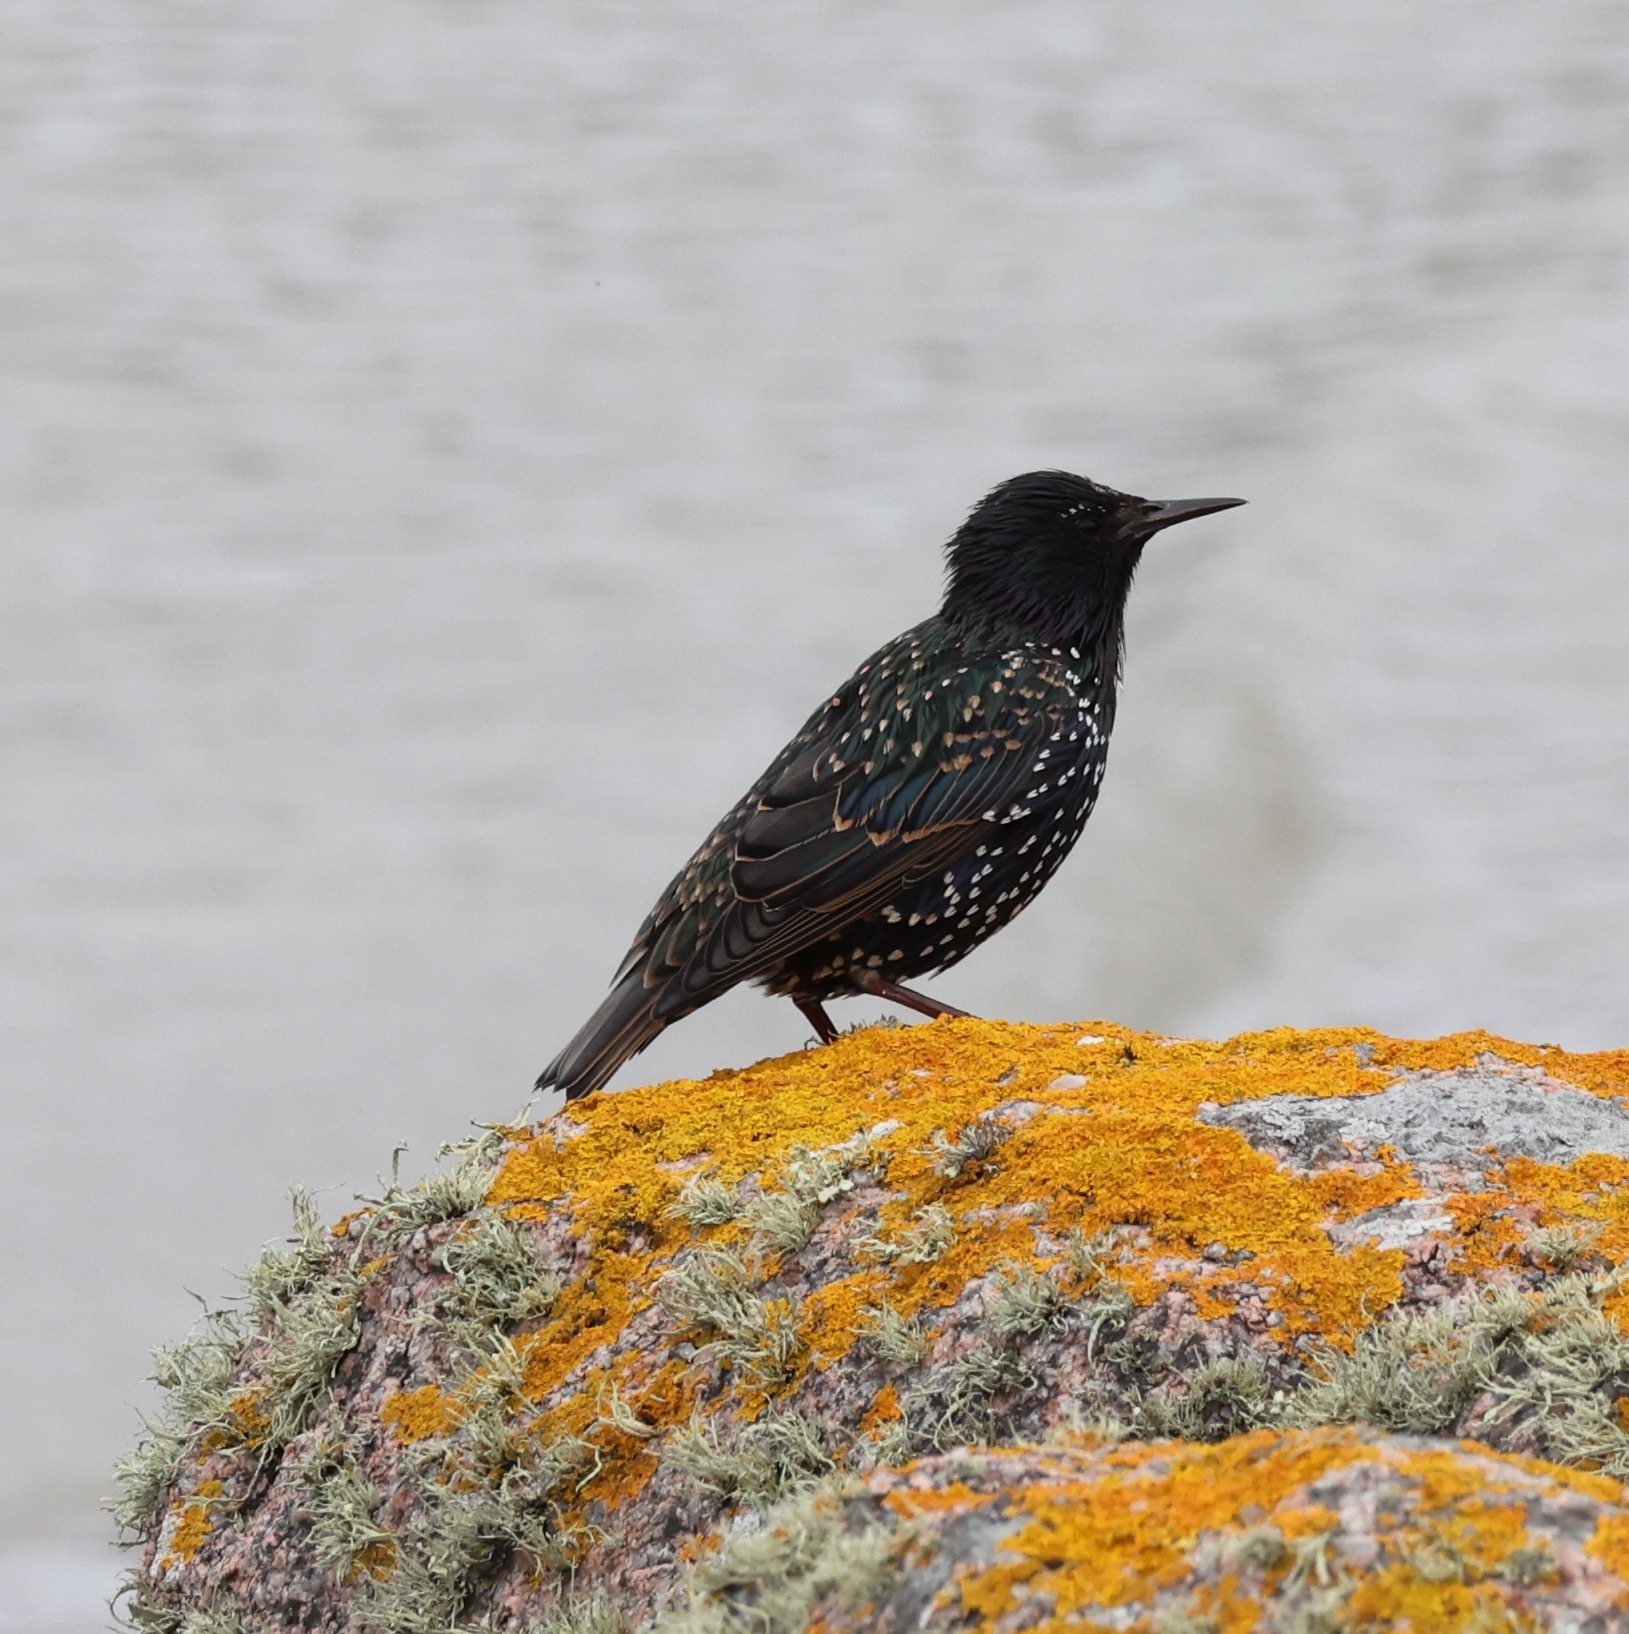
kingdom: Animalia
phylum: Chordata
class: Aves
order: Passeriformes
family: Sturnidae
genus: Sturnus
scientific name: Sturnus vulgaris
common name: Common starling
